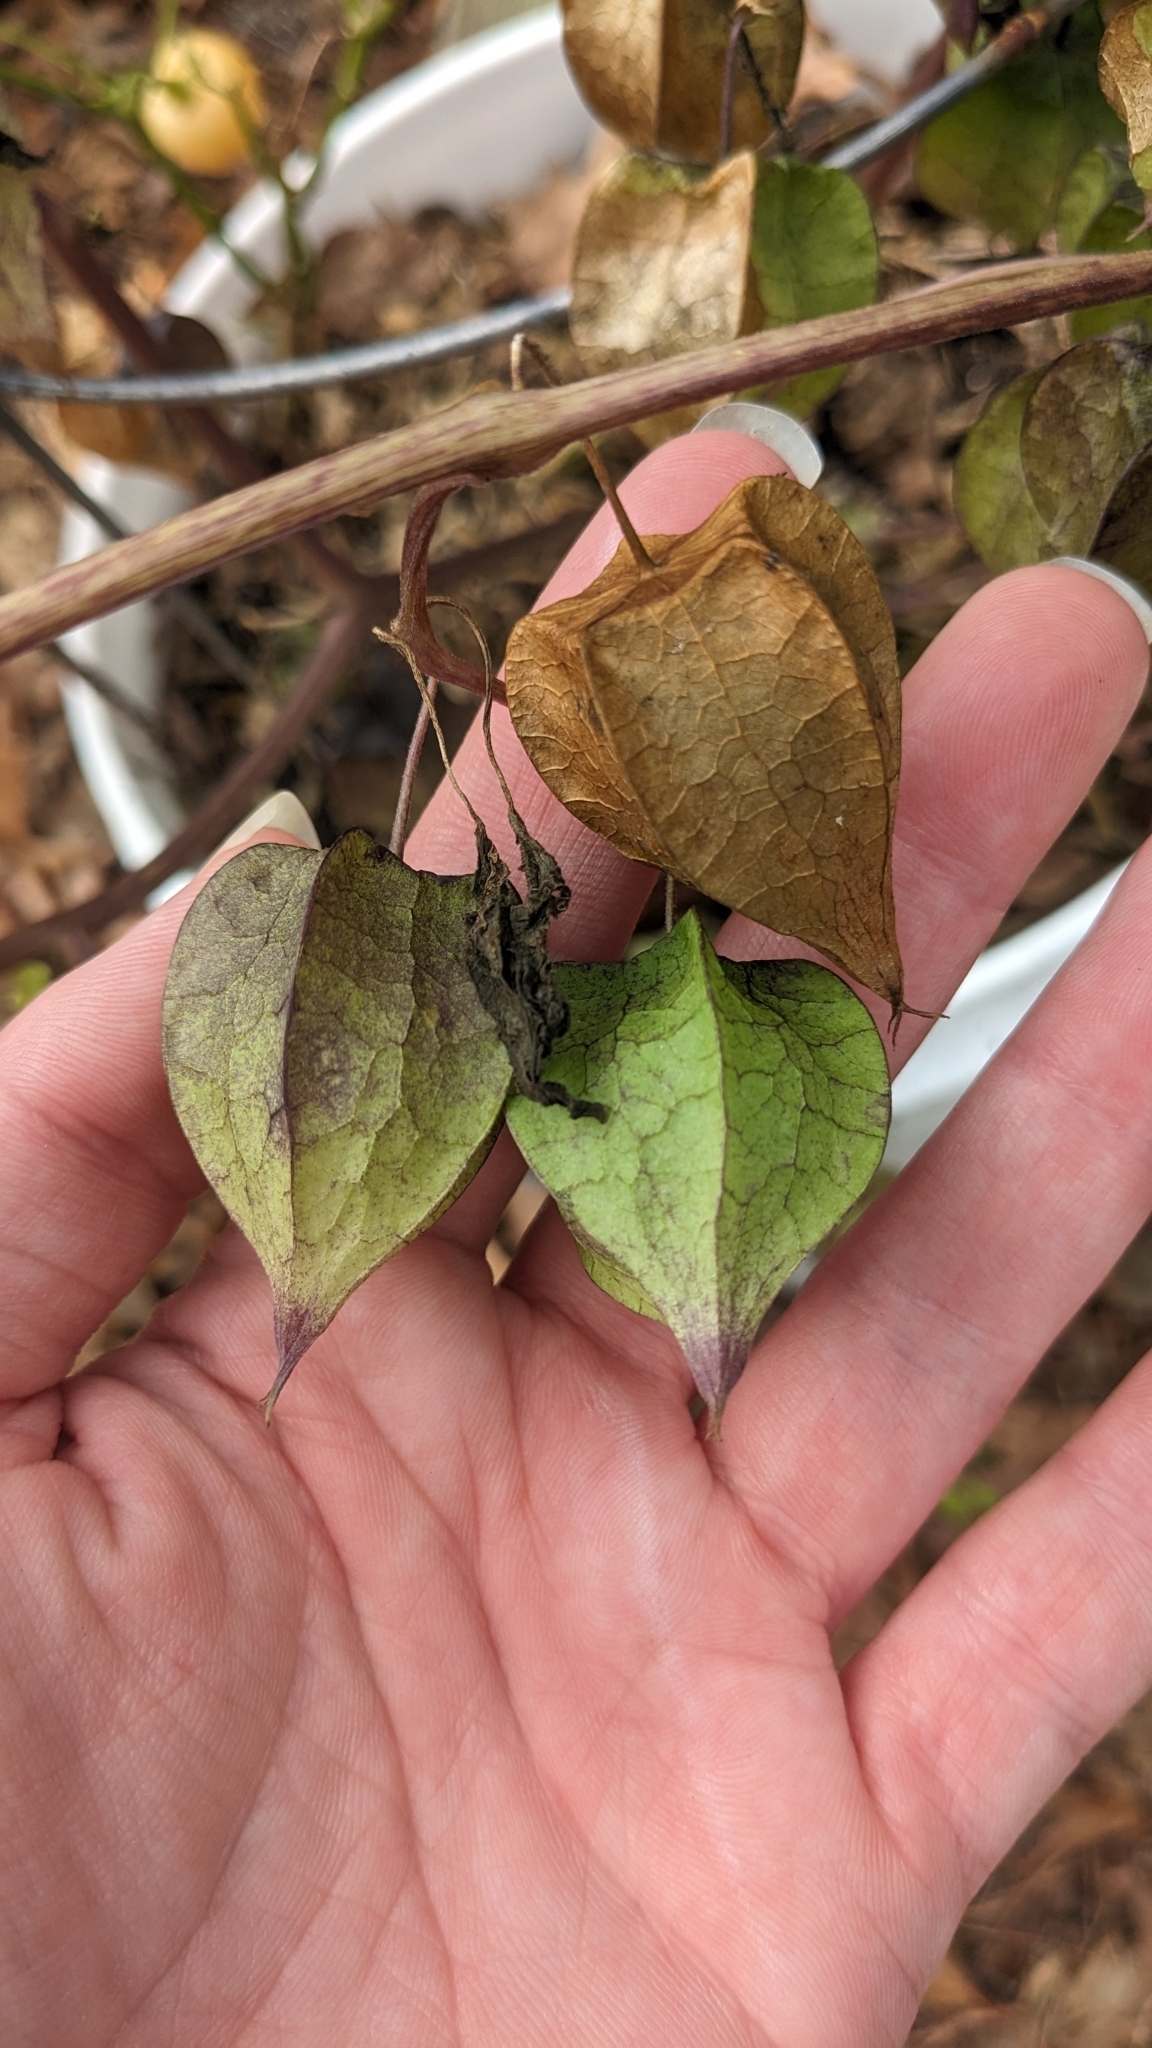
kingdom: Plantae
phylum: Tracheophyta
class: Magnoliopsida
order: Solanales
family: Solanaceae
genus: Physalis
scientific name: Physalis cordata
